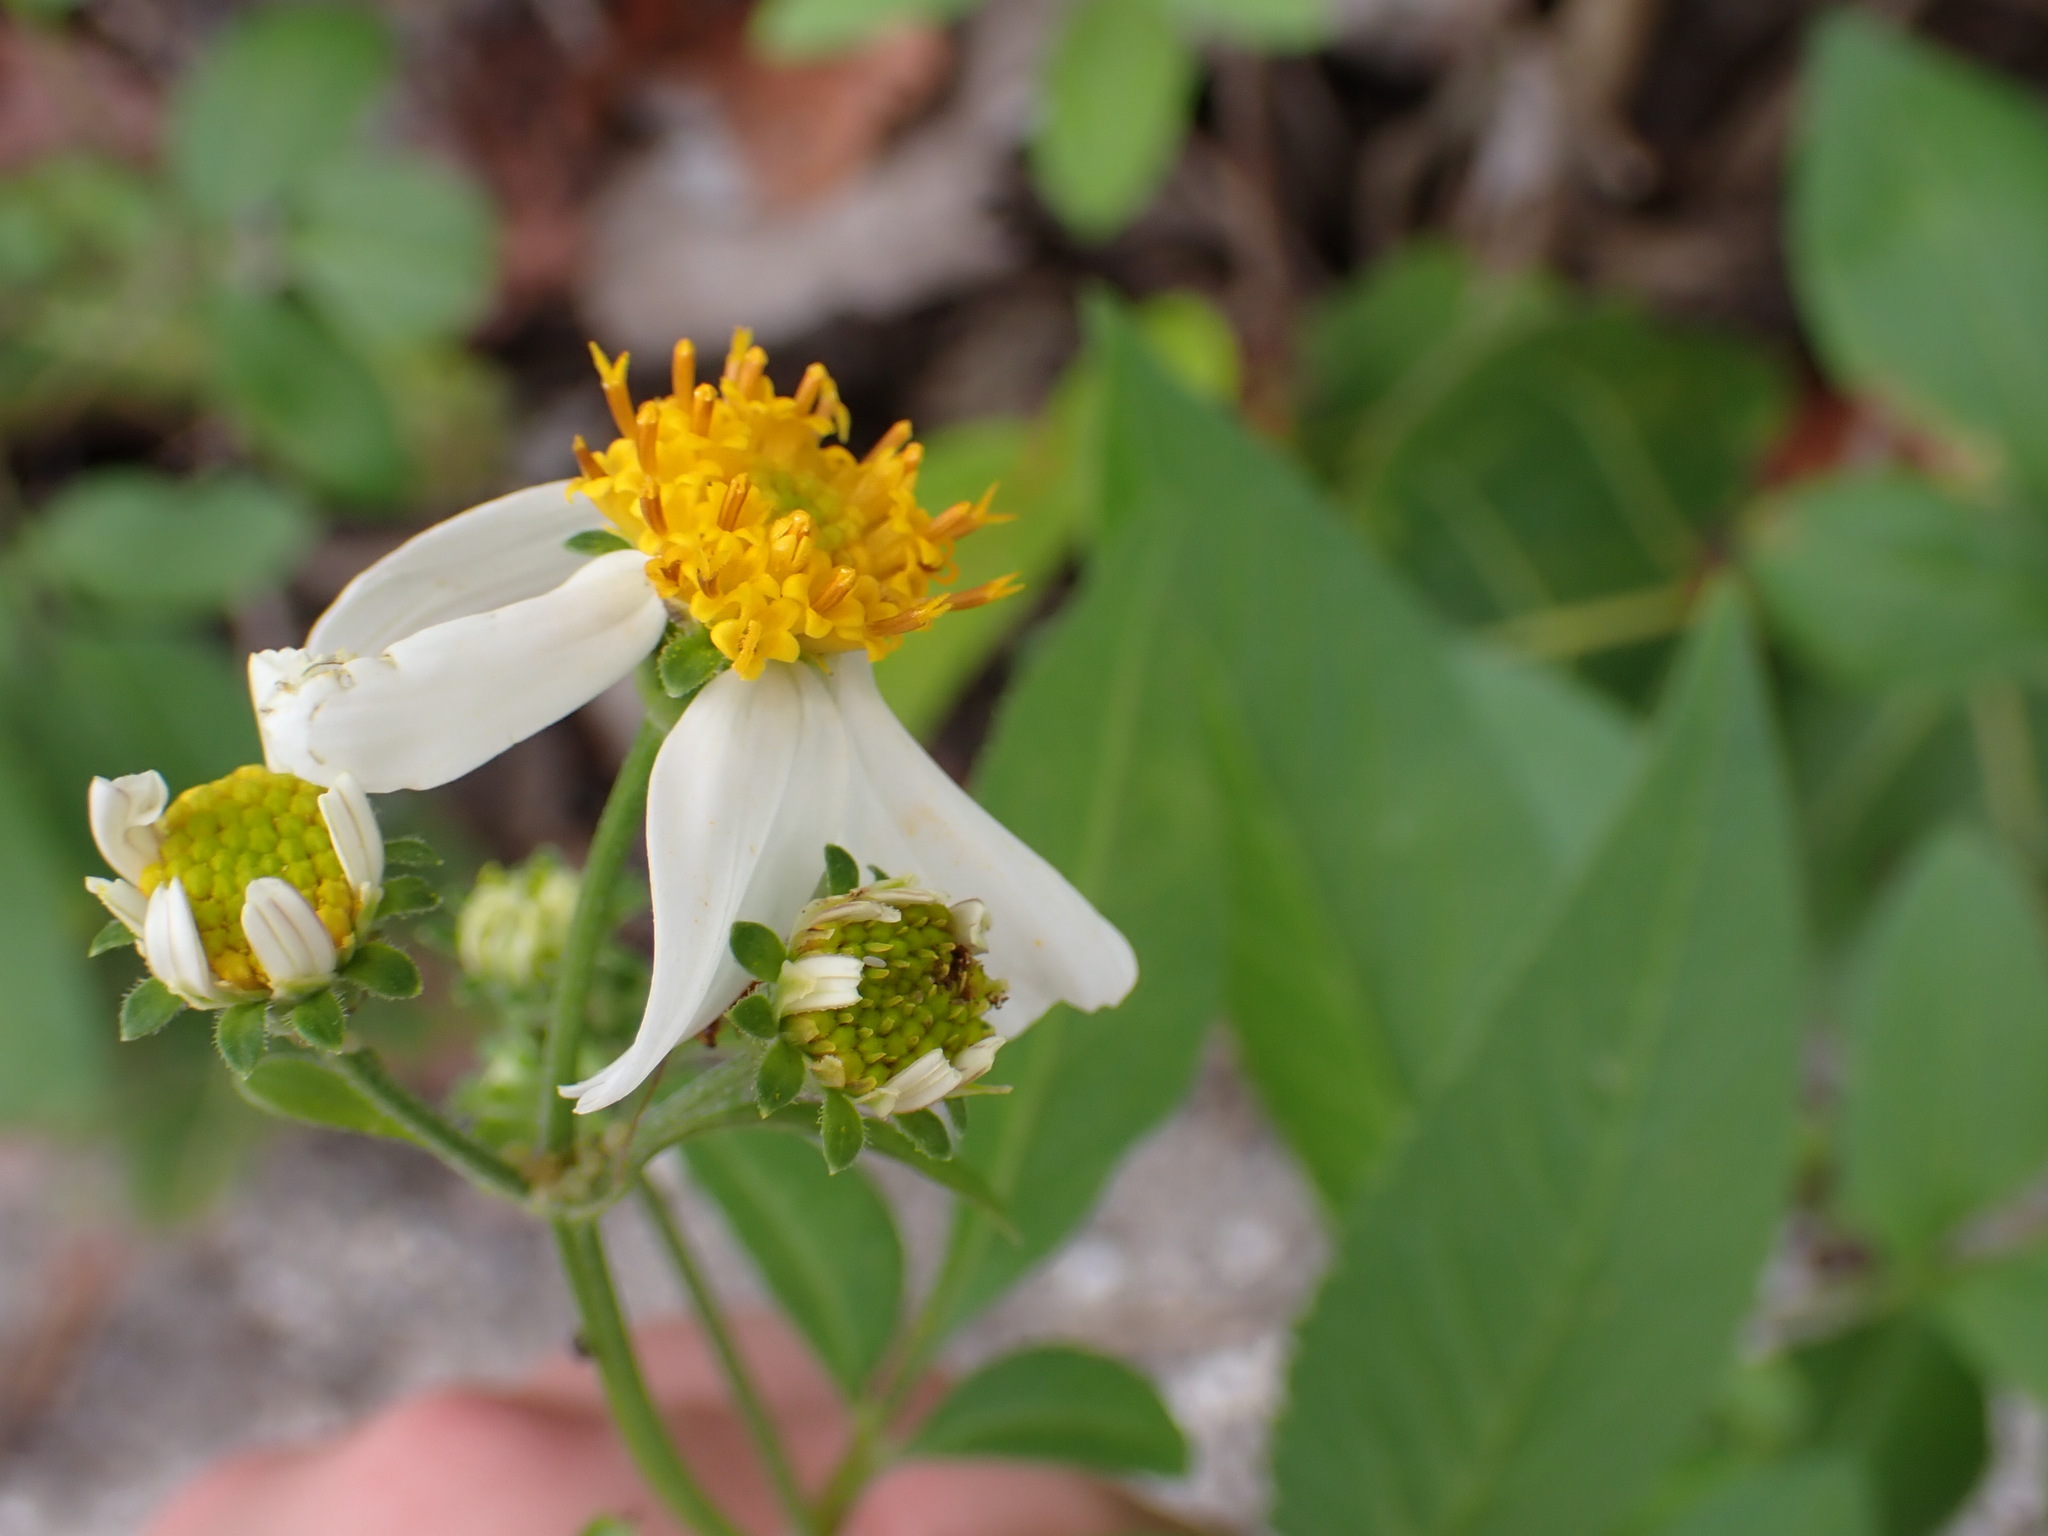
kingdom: Plantae
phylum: Tracheophyta
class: Magnoliopsida
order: Asterales
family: Asteraceae
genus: Bidens
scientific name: Bidens alba
